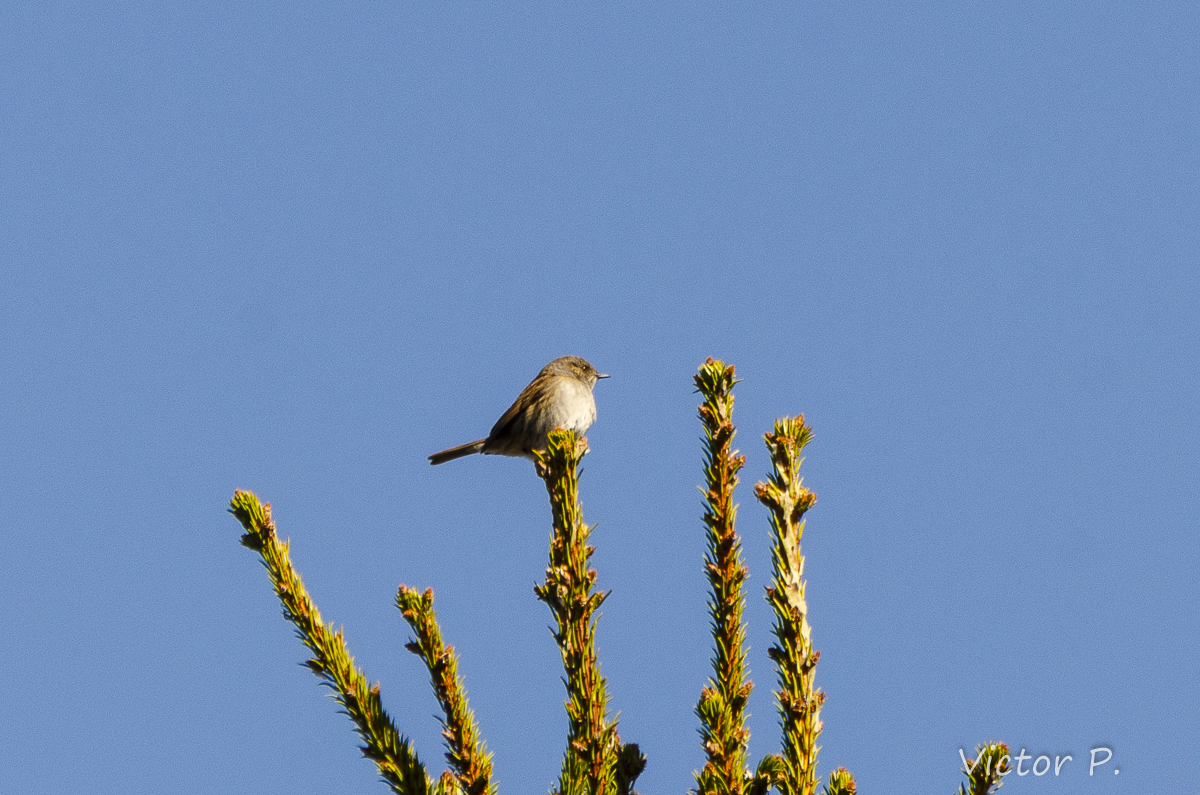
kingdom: Animalia
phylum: Chordata
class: Aves
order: Passeriformes
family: Prunellidae
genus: Prunella
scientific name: Prunella modularis
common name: Dunnock
